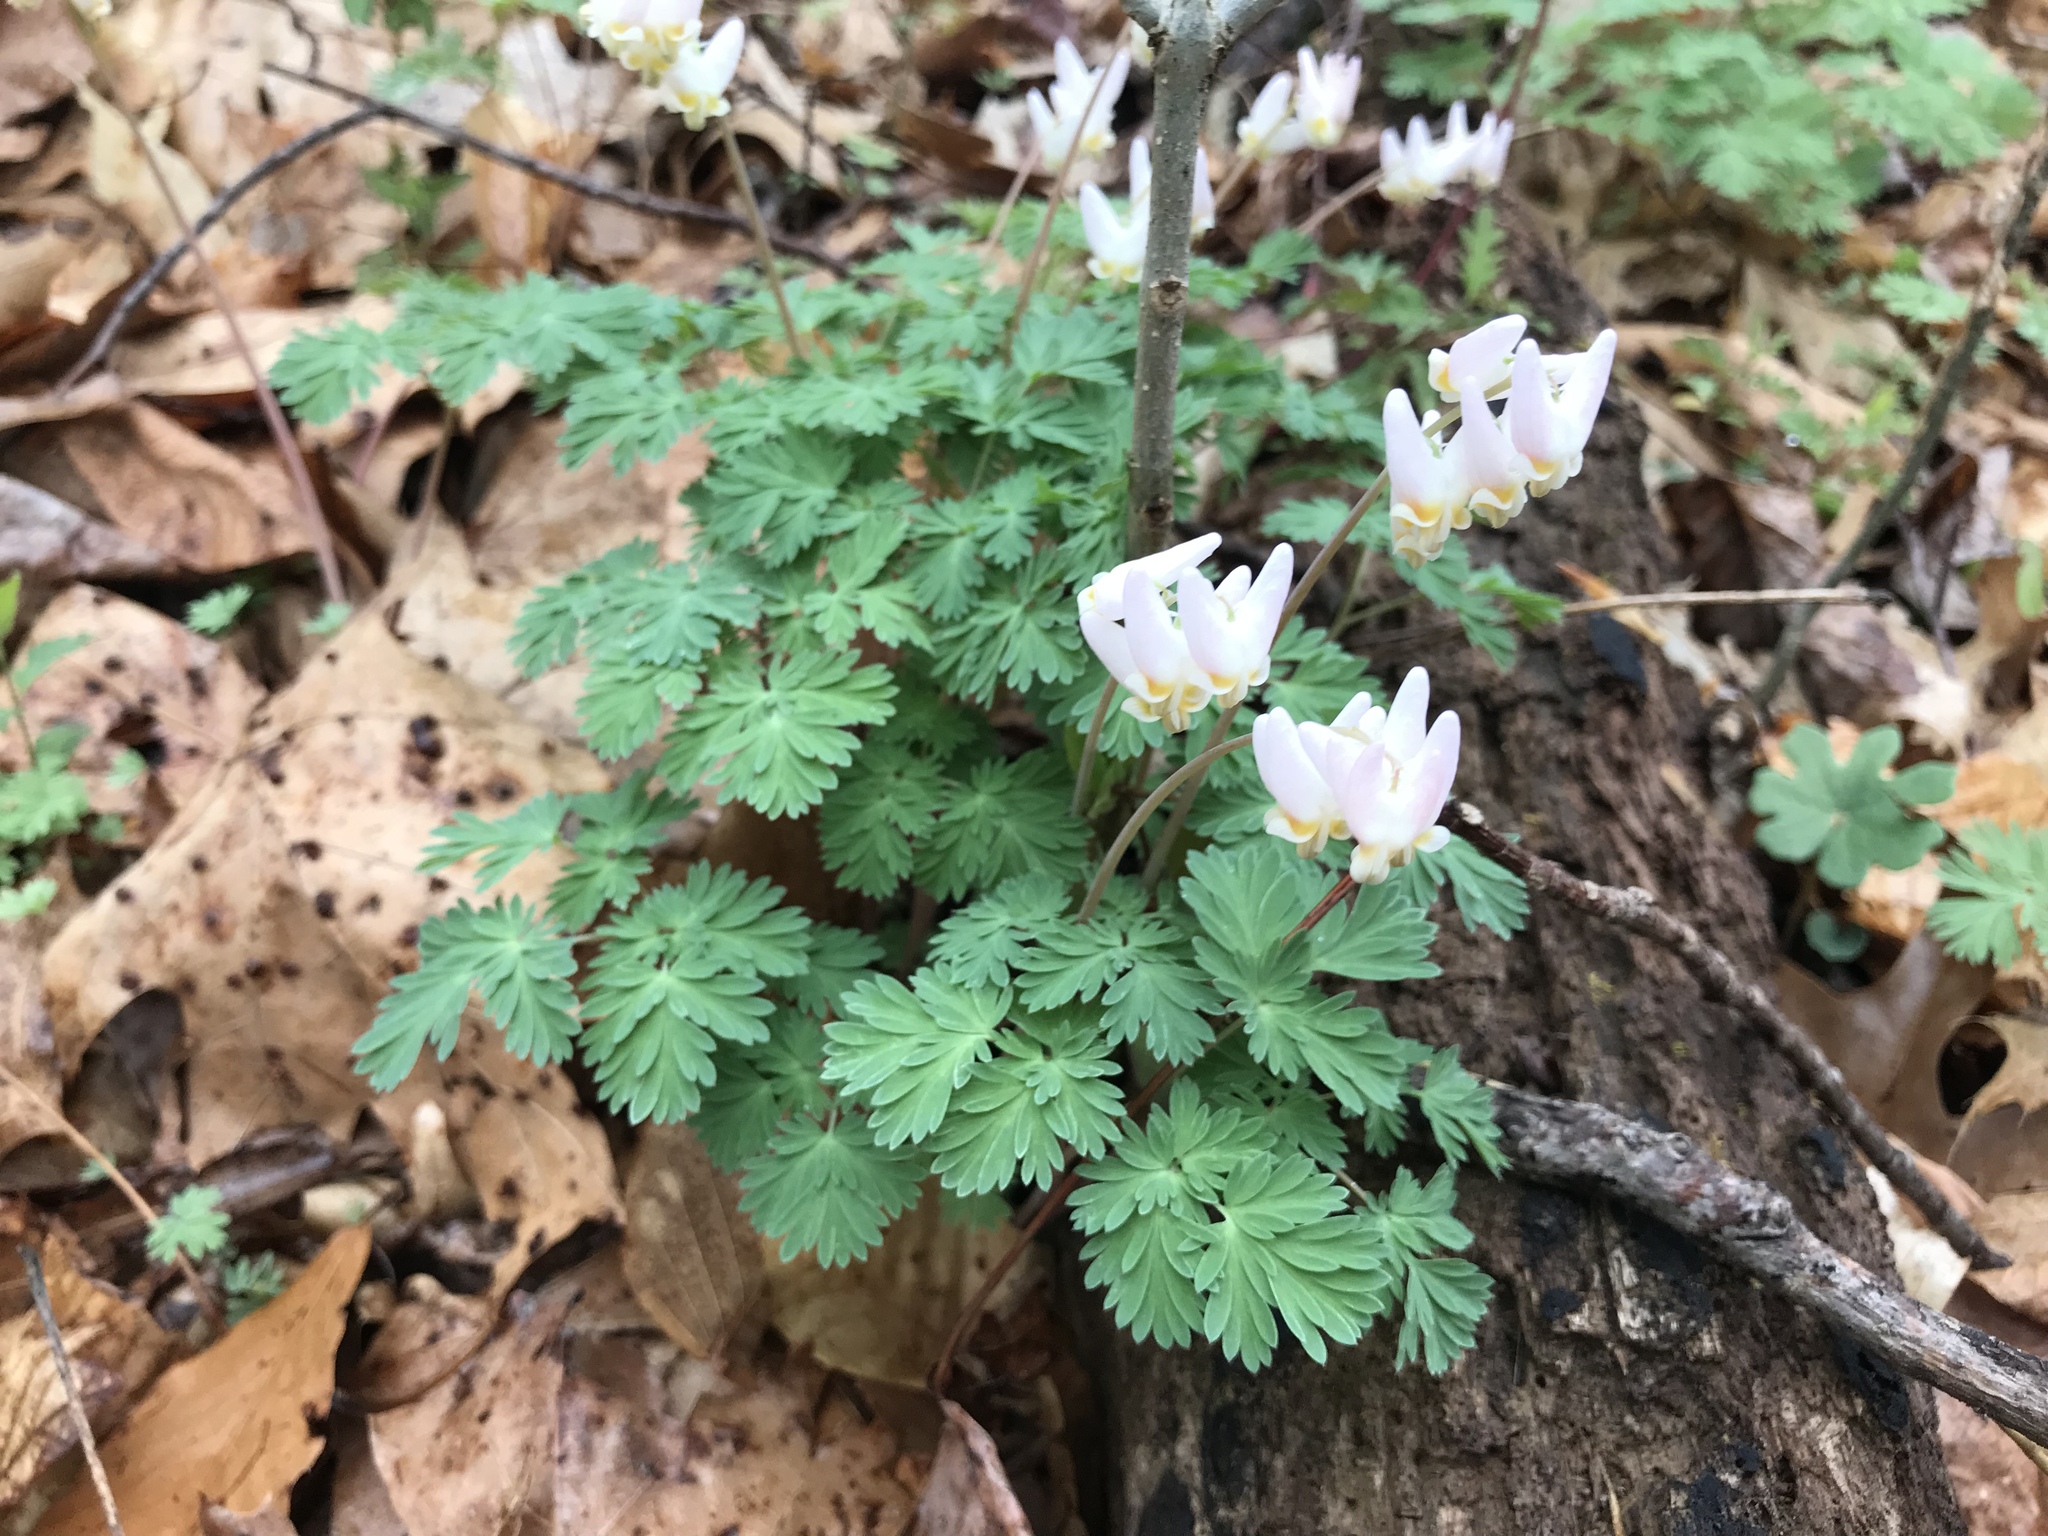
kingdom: Plantae
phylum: Tracheophyta
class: Magnoliopsida
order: Ranunculales
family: Papaveraceae
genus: Dicentra
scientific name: Dicentra cucullaria
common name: Dutchman's breeches
